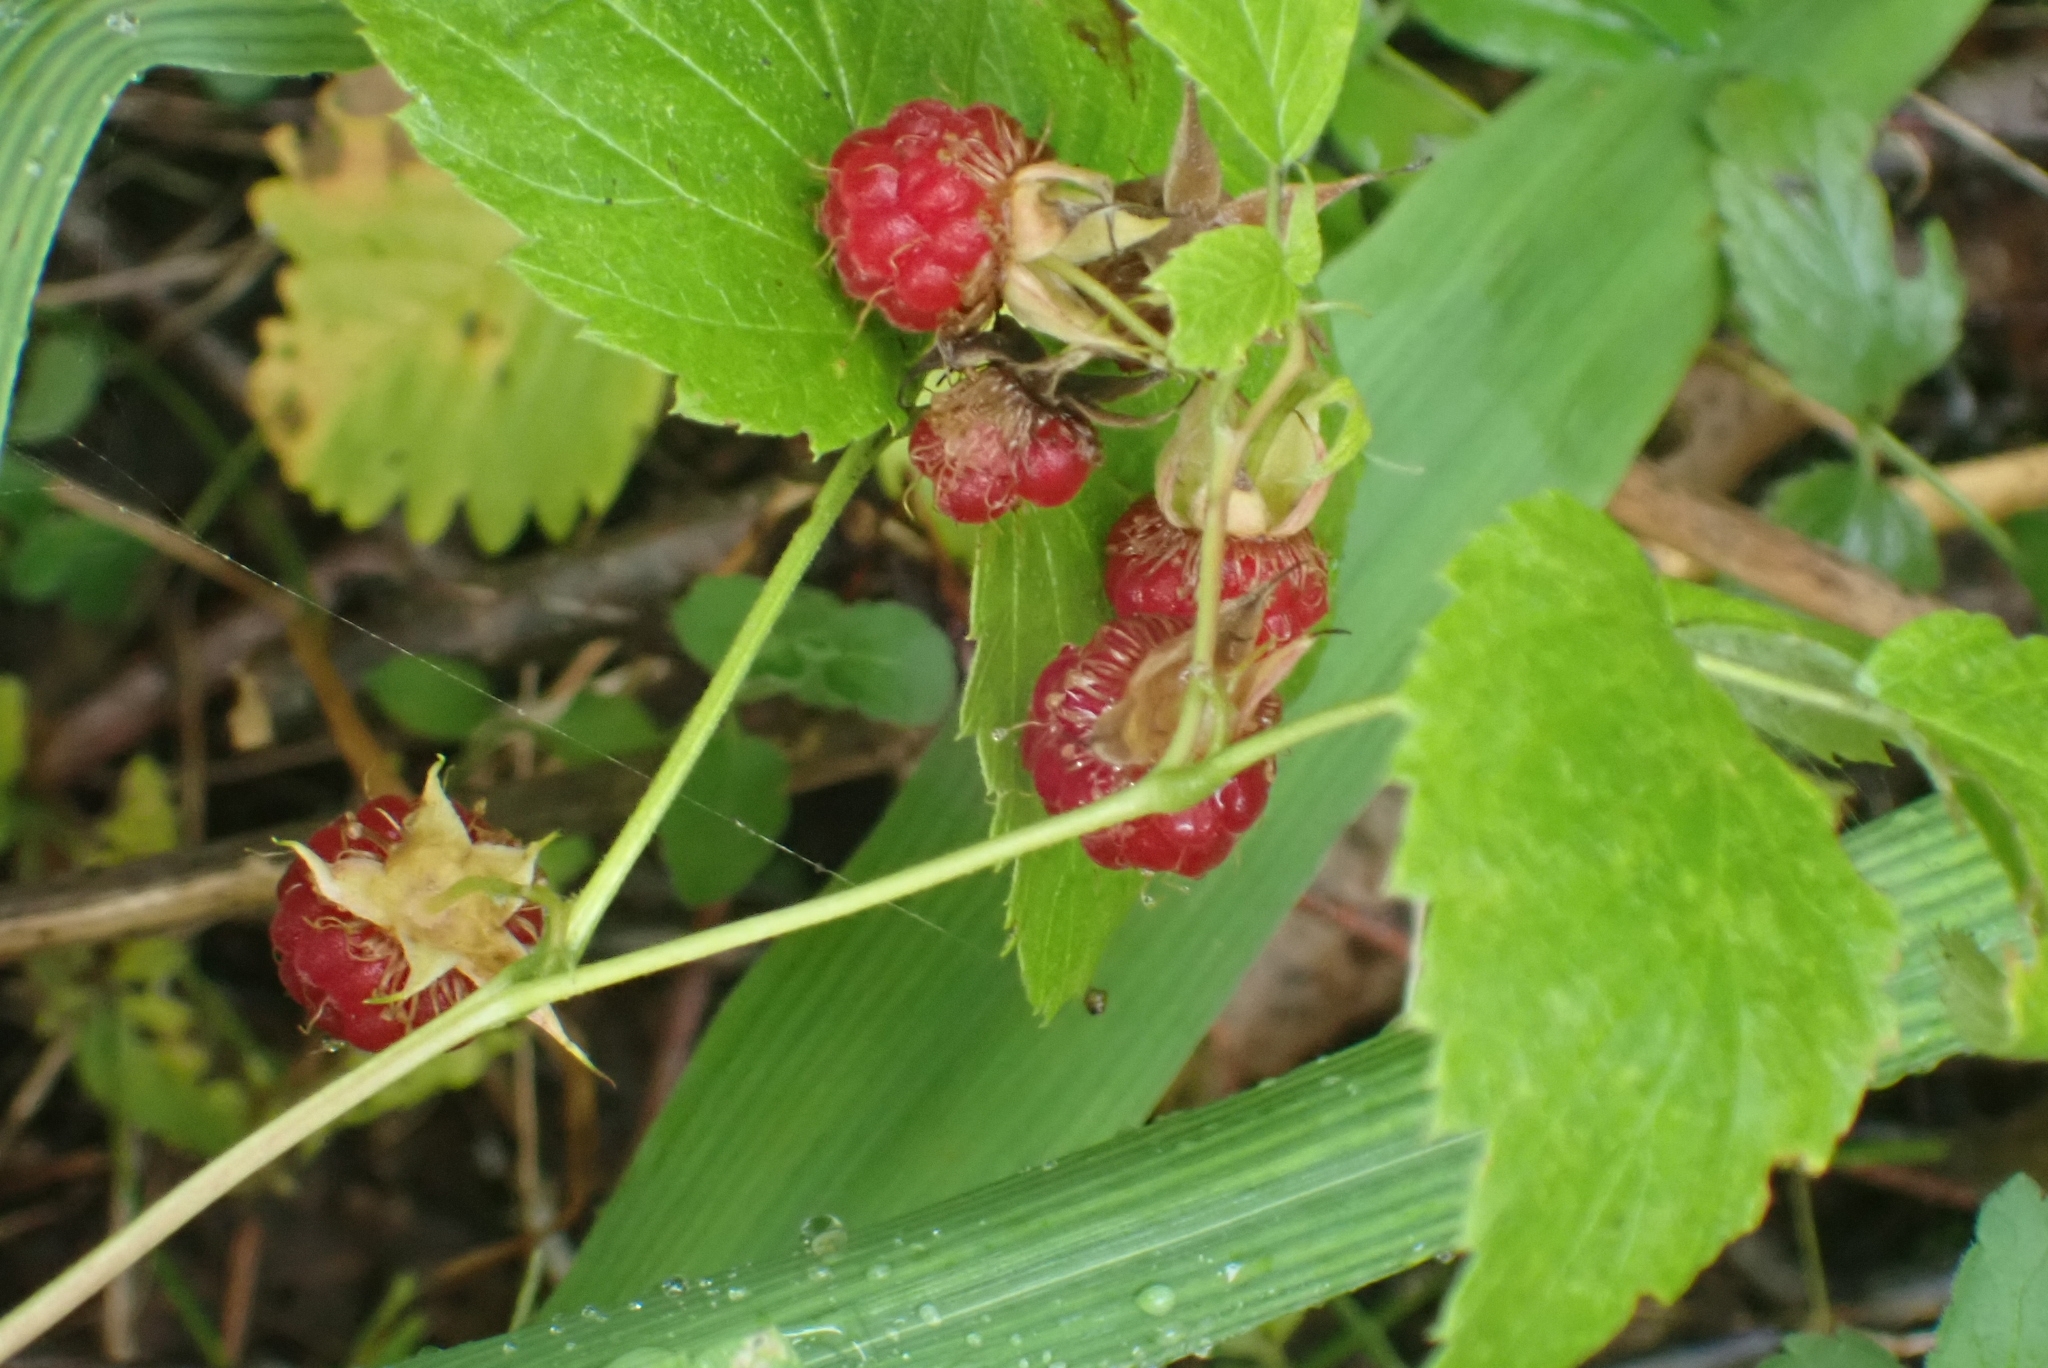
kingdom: Plantae
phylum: Tracheophyta
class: Magnoliopsida
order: Rosales
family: Rosaceae
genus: Rubus
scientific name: Rubus idaeus
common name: Raspberry
